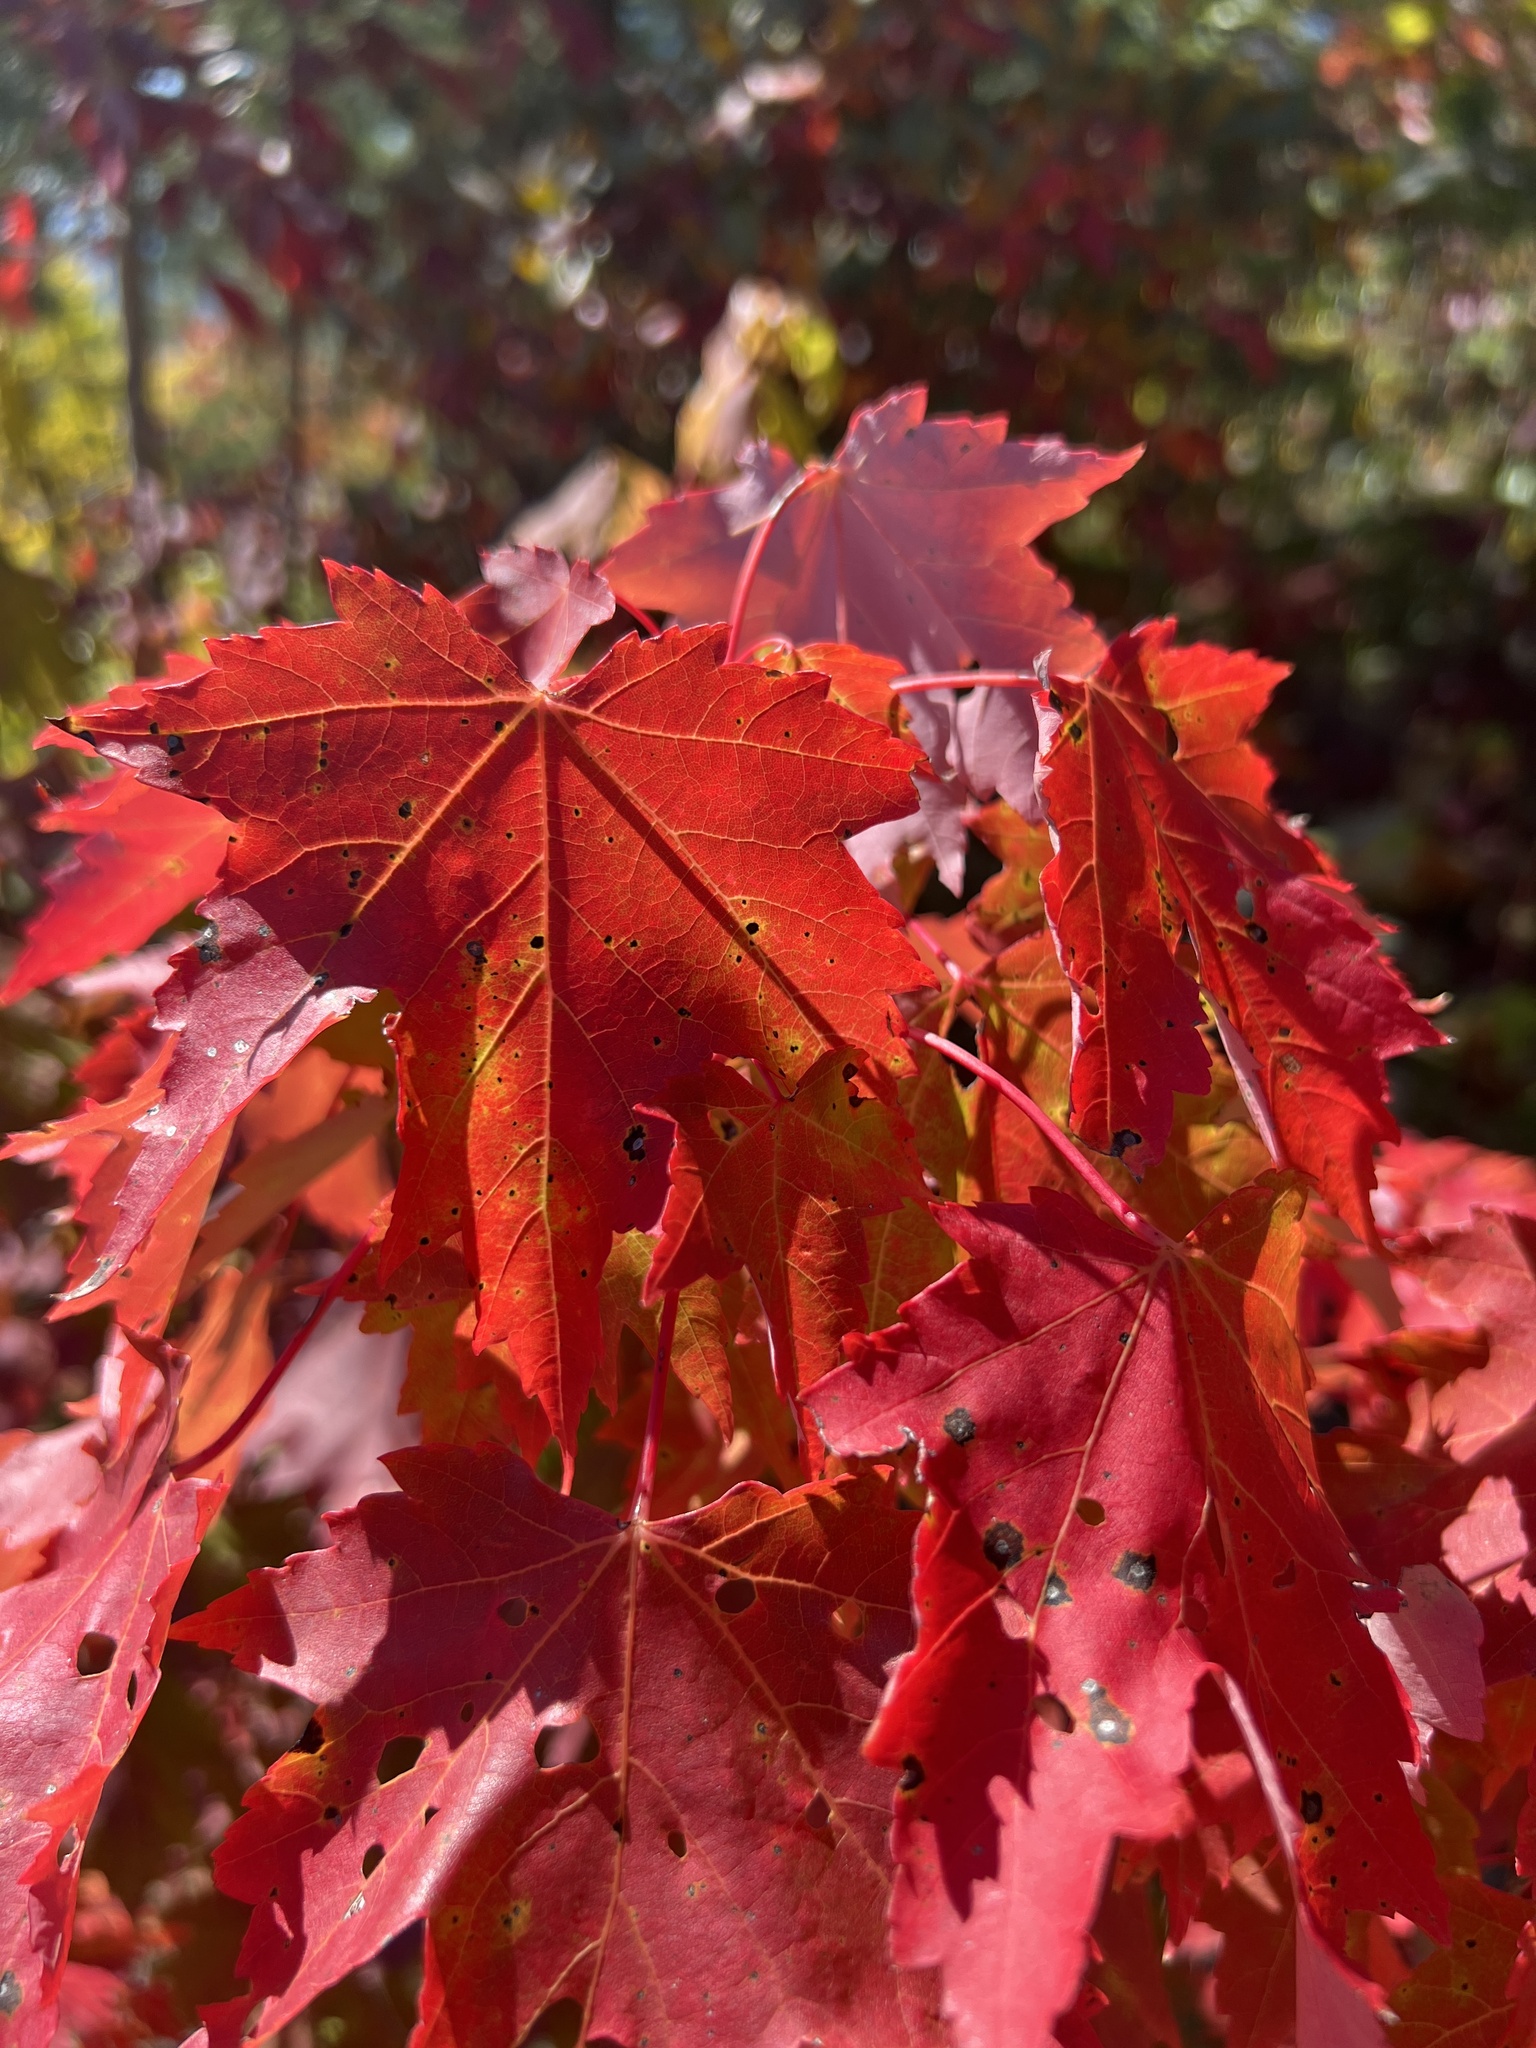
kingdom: Plantae
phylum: Tracheophyta
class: Magnoliopsida
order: Sapindales
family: Sapindaceae
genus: Acer
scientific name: Acer rubrum
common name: Red maple
